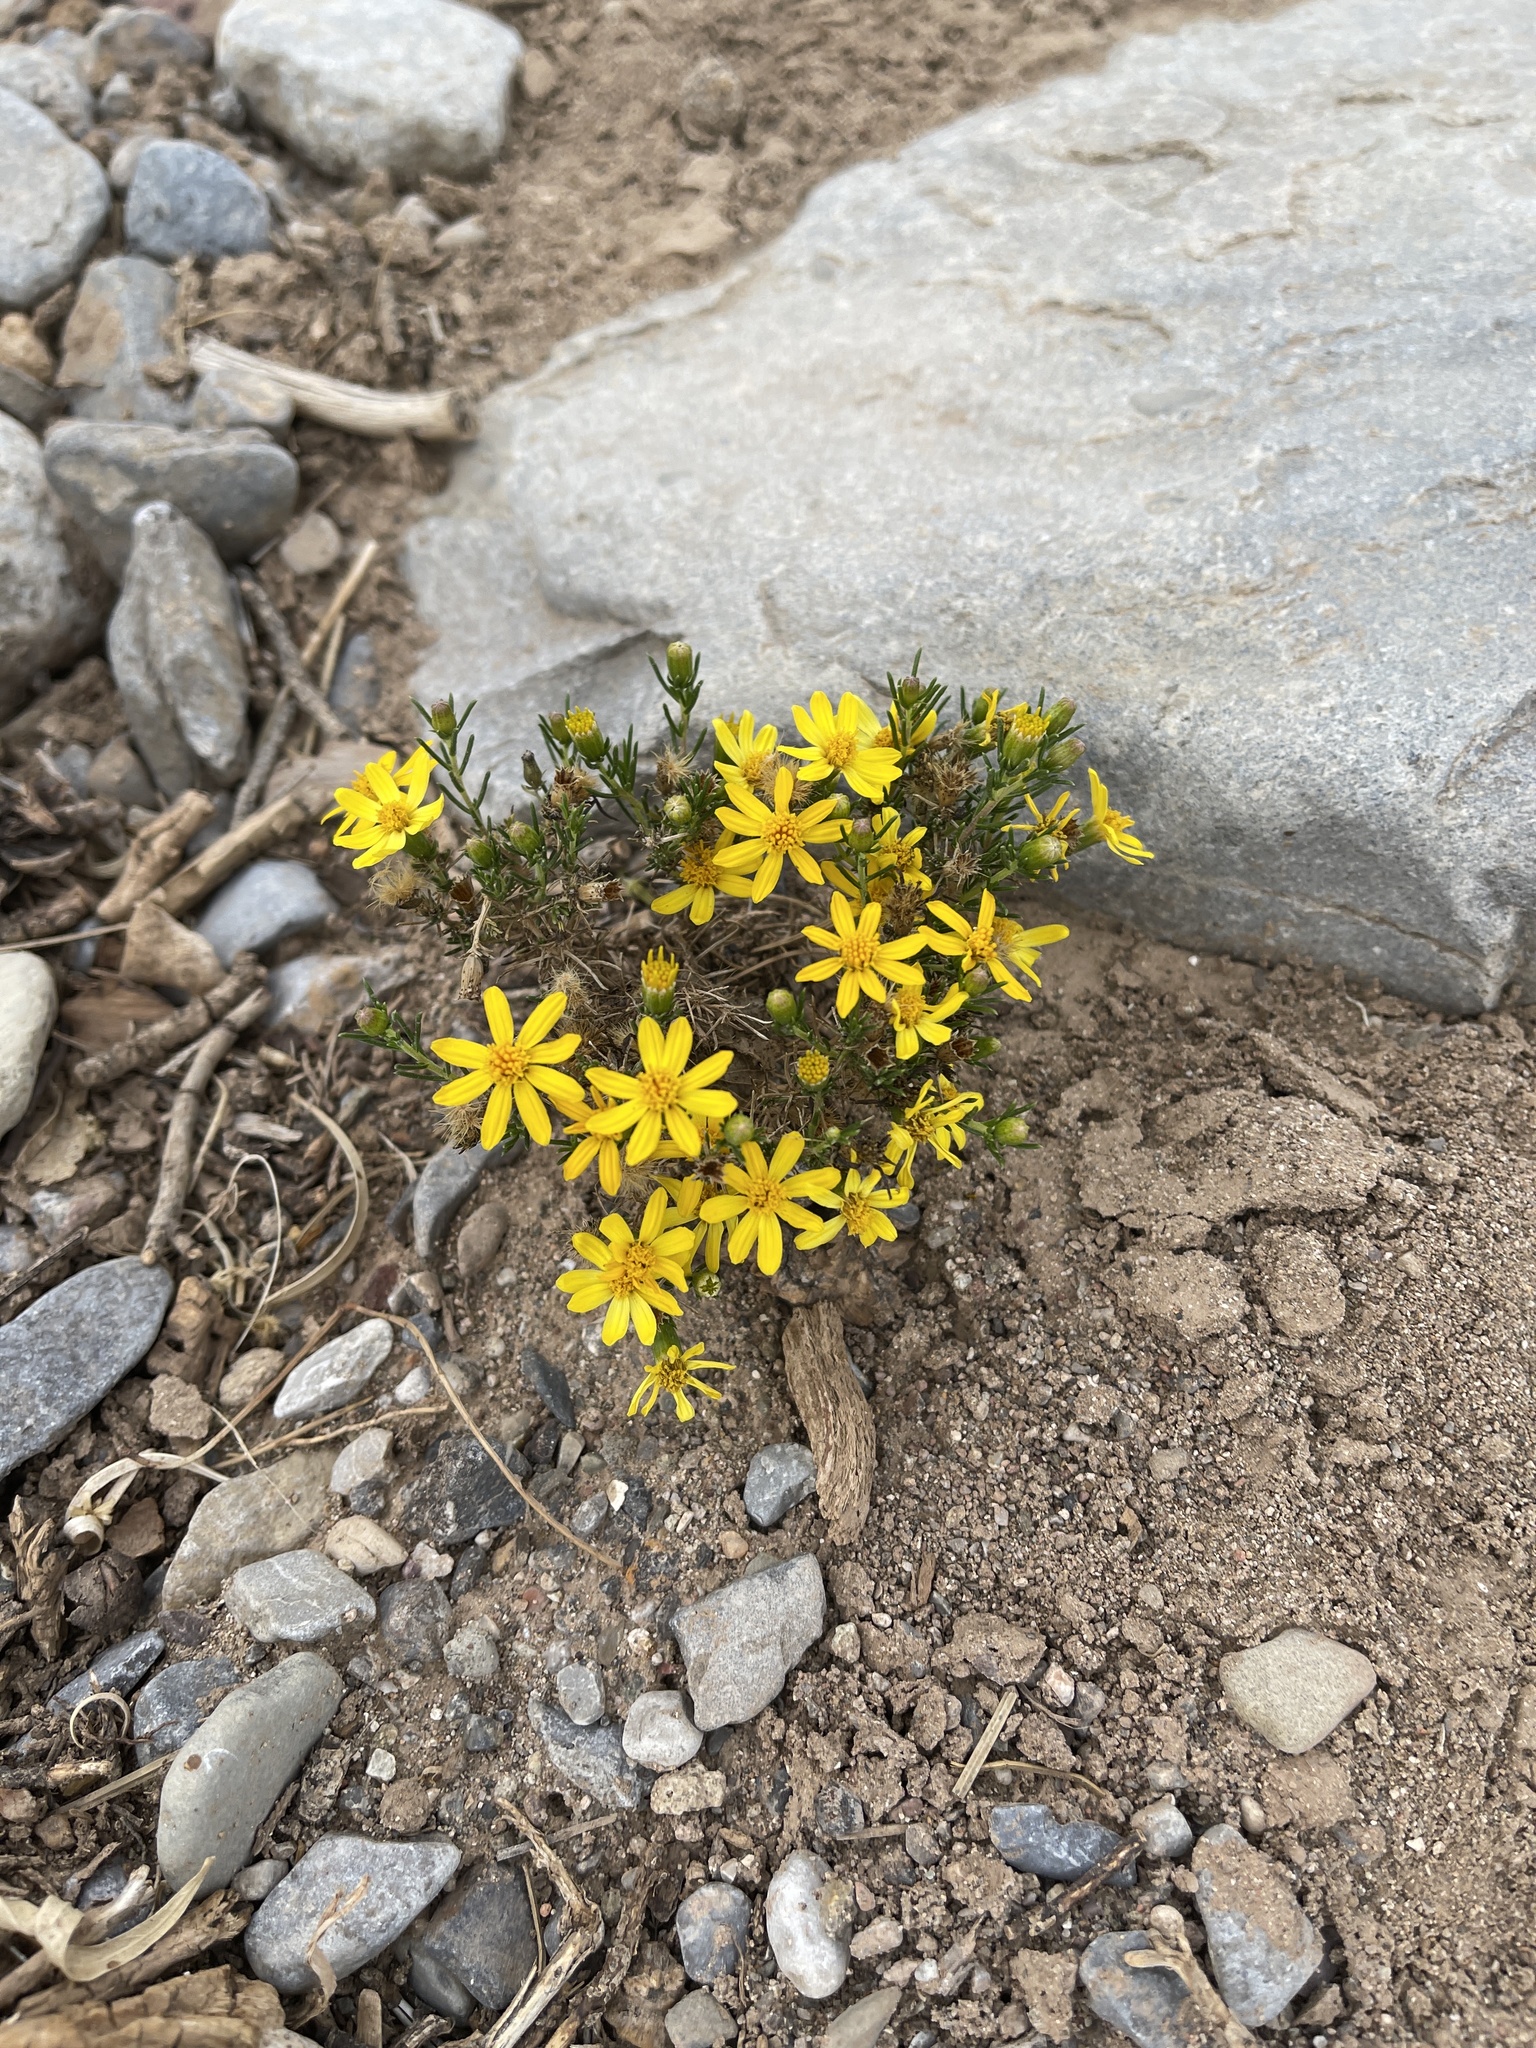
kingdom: Plantae
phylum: Tracheophyta
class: Magnoliopsida
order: Asterales
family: Asteraceae
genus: Thymophylla
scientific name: Thymophylla acerosa
